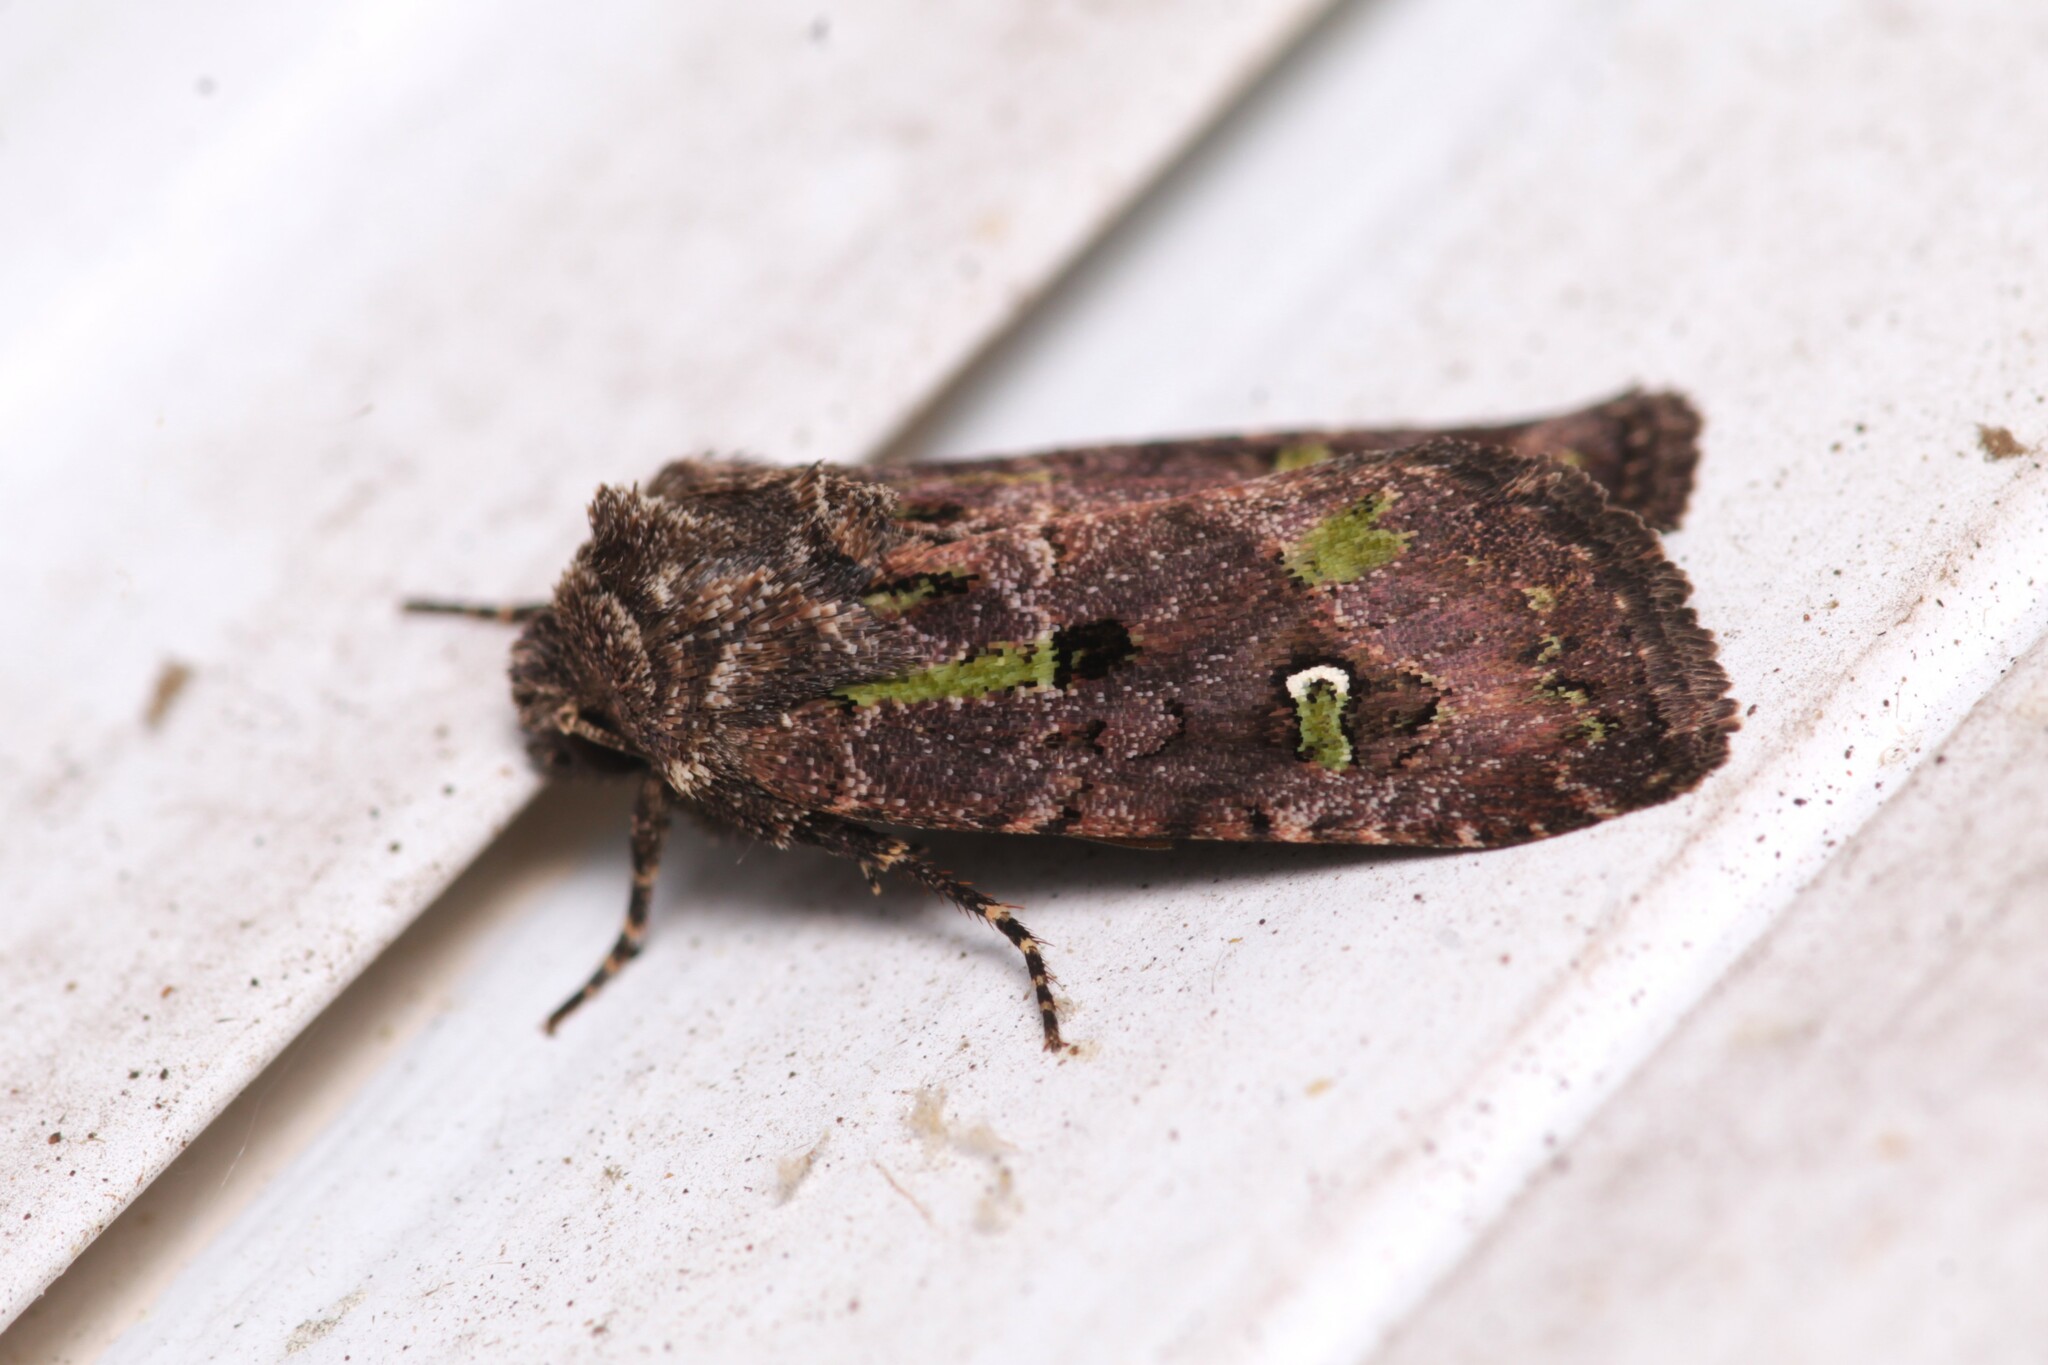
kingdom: Animalia
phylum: Arthropoda
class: Insecta
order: Lepidoptera
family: Noctuidae
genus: Lacinipolia
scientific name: Lacinipolia renigera
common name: Kidney-spotted minor
